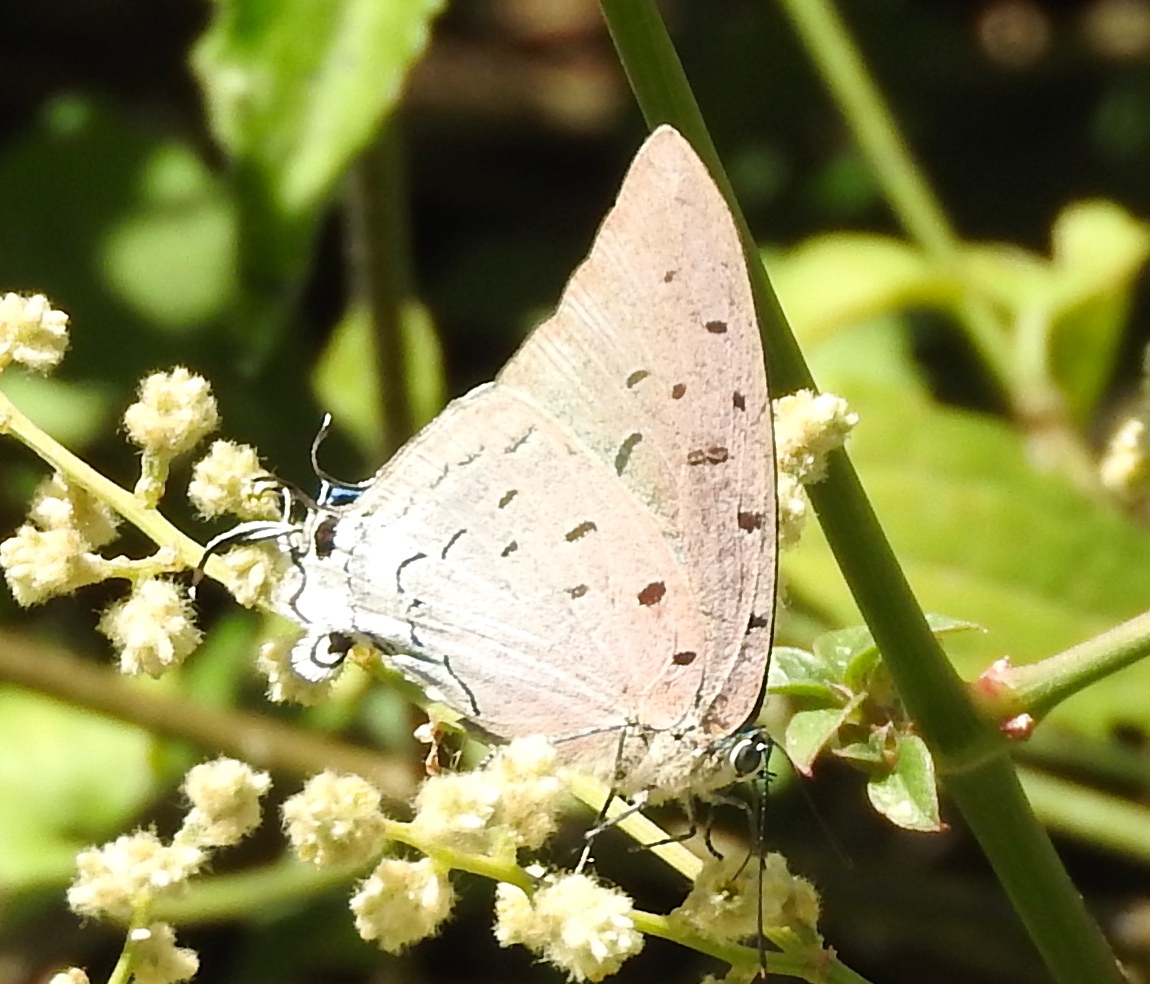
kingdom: Animalia
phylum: Arthropoda
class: Insecta
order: Lepidoptera
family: Lycaenidae
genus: Pseudolycaena
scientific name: Pseudolycaena damo
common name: Sky-blue hairstreak
